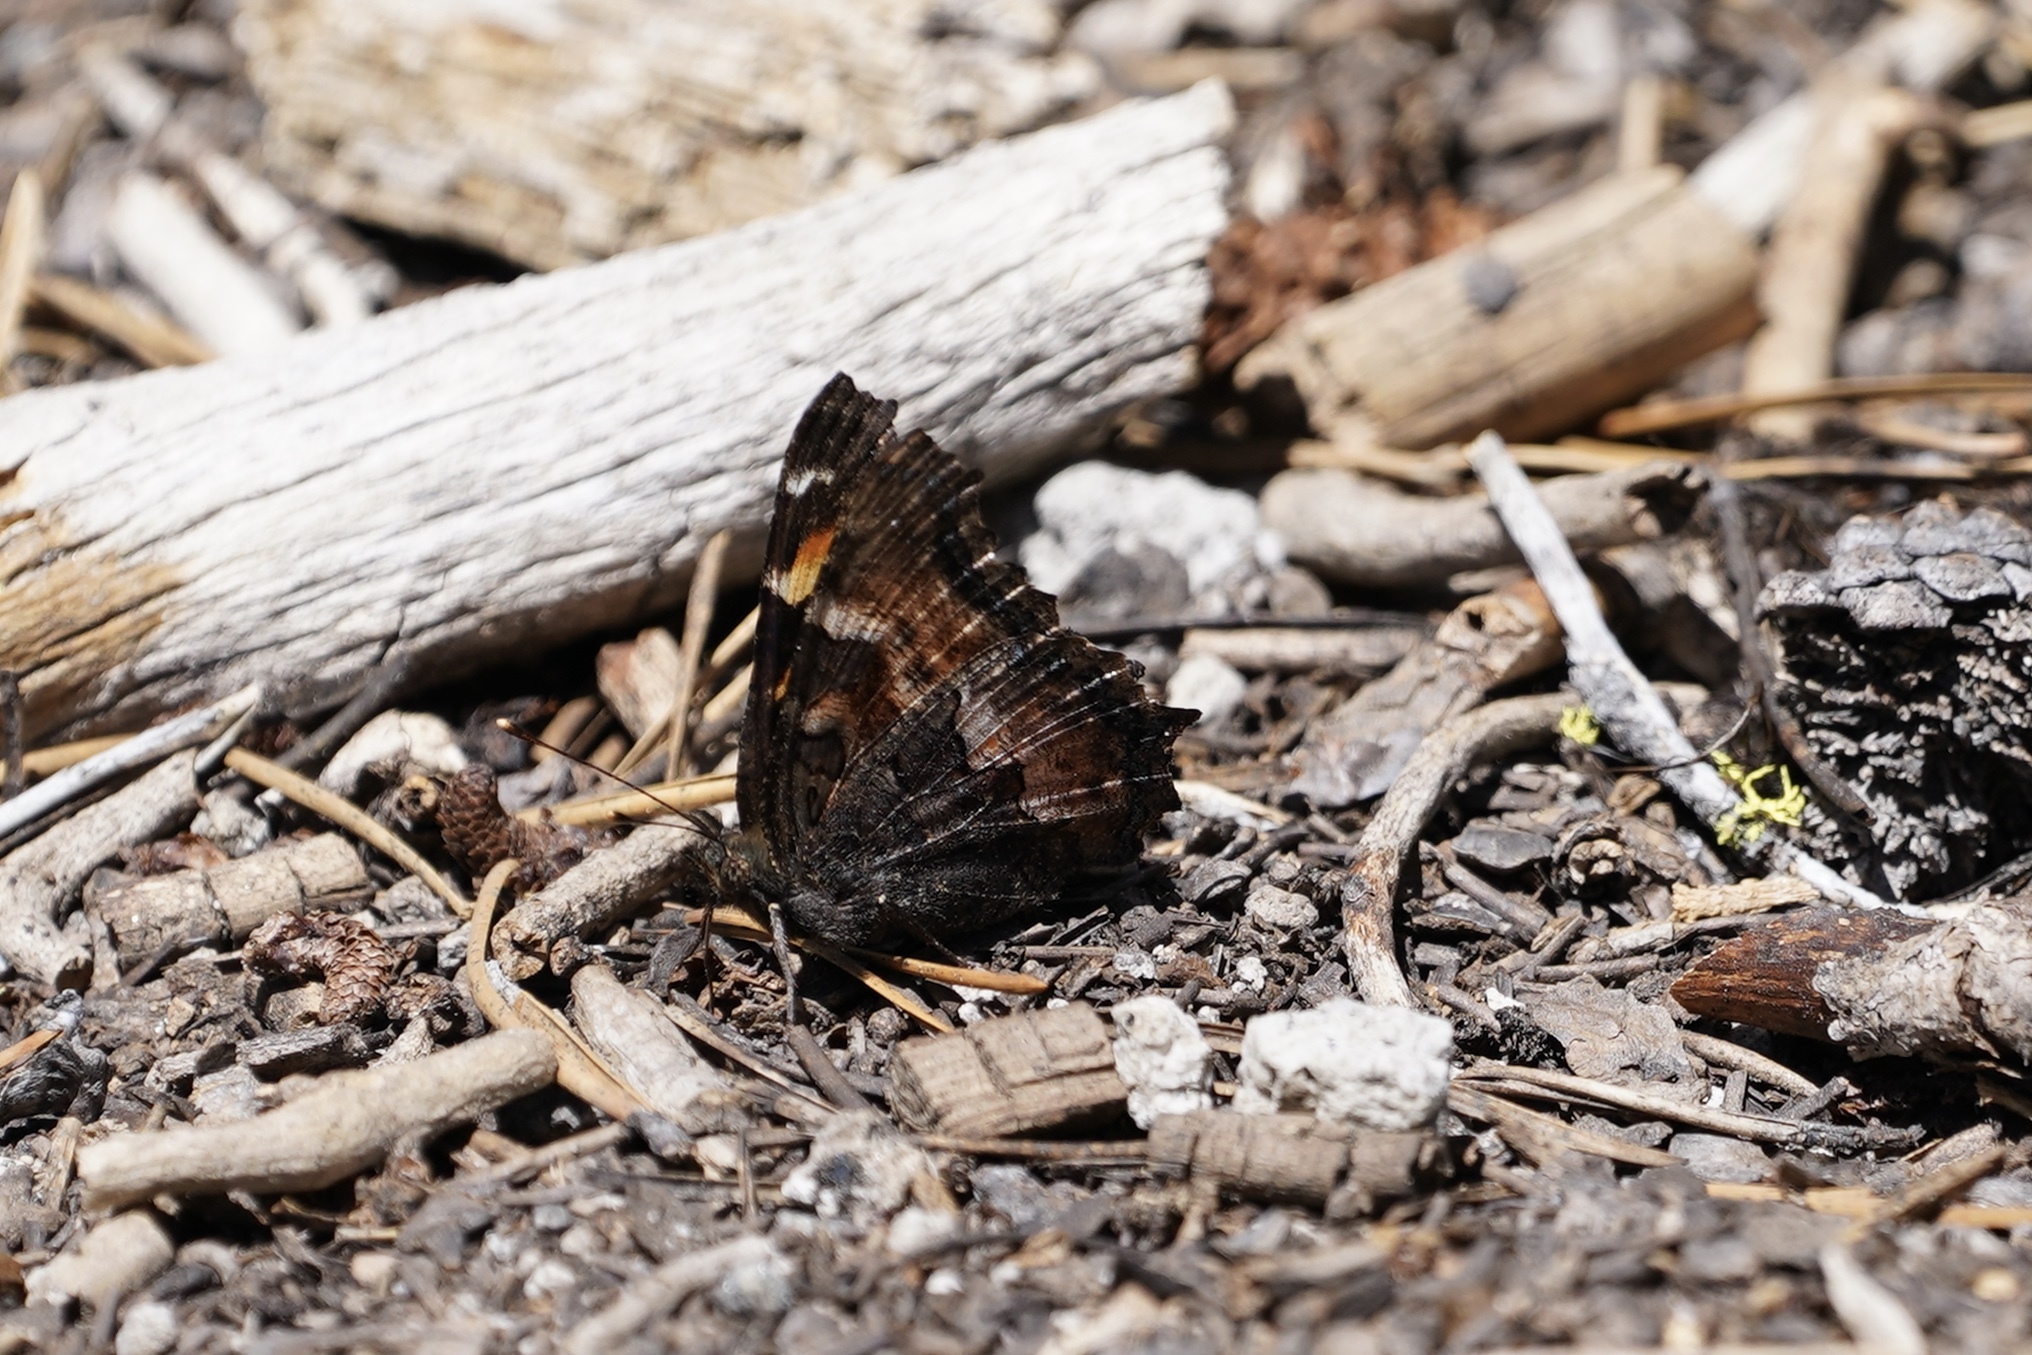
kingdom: Animalia
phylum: Arthropoda
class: Insecta
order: Lepidoptera
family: Nymphalidae
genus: Nymphalis
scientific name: Nymphalis californica
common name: California tortoiseshell
